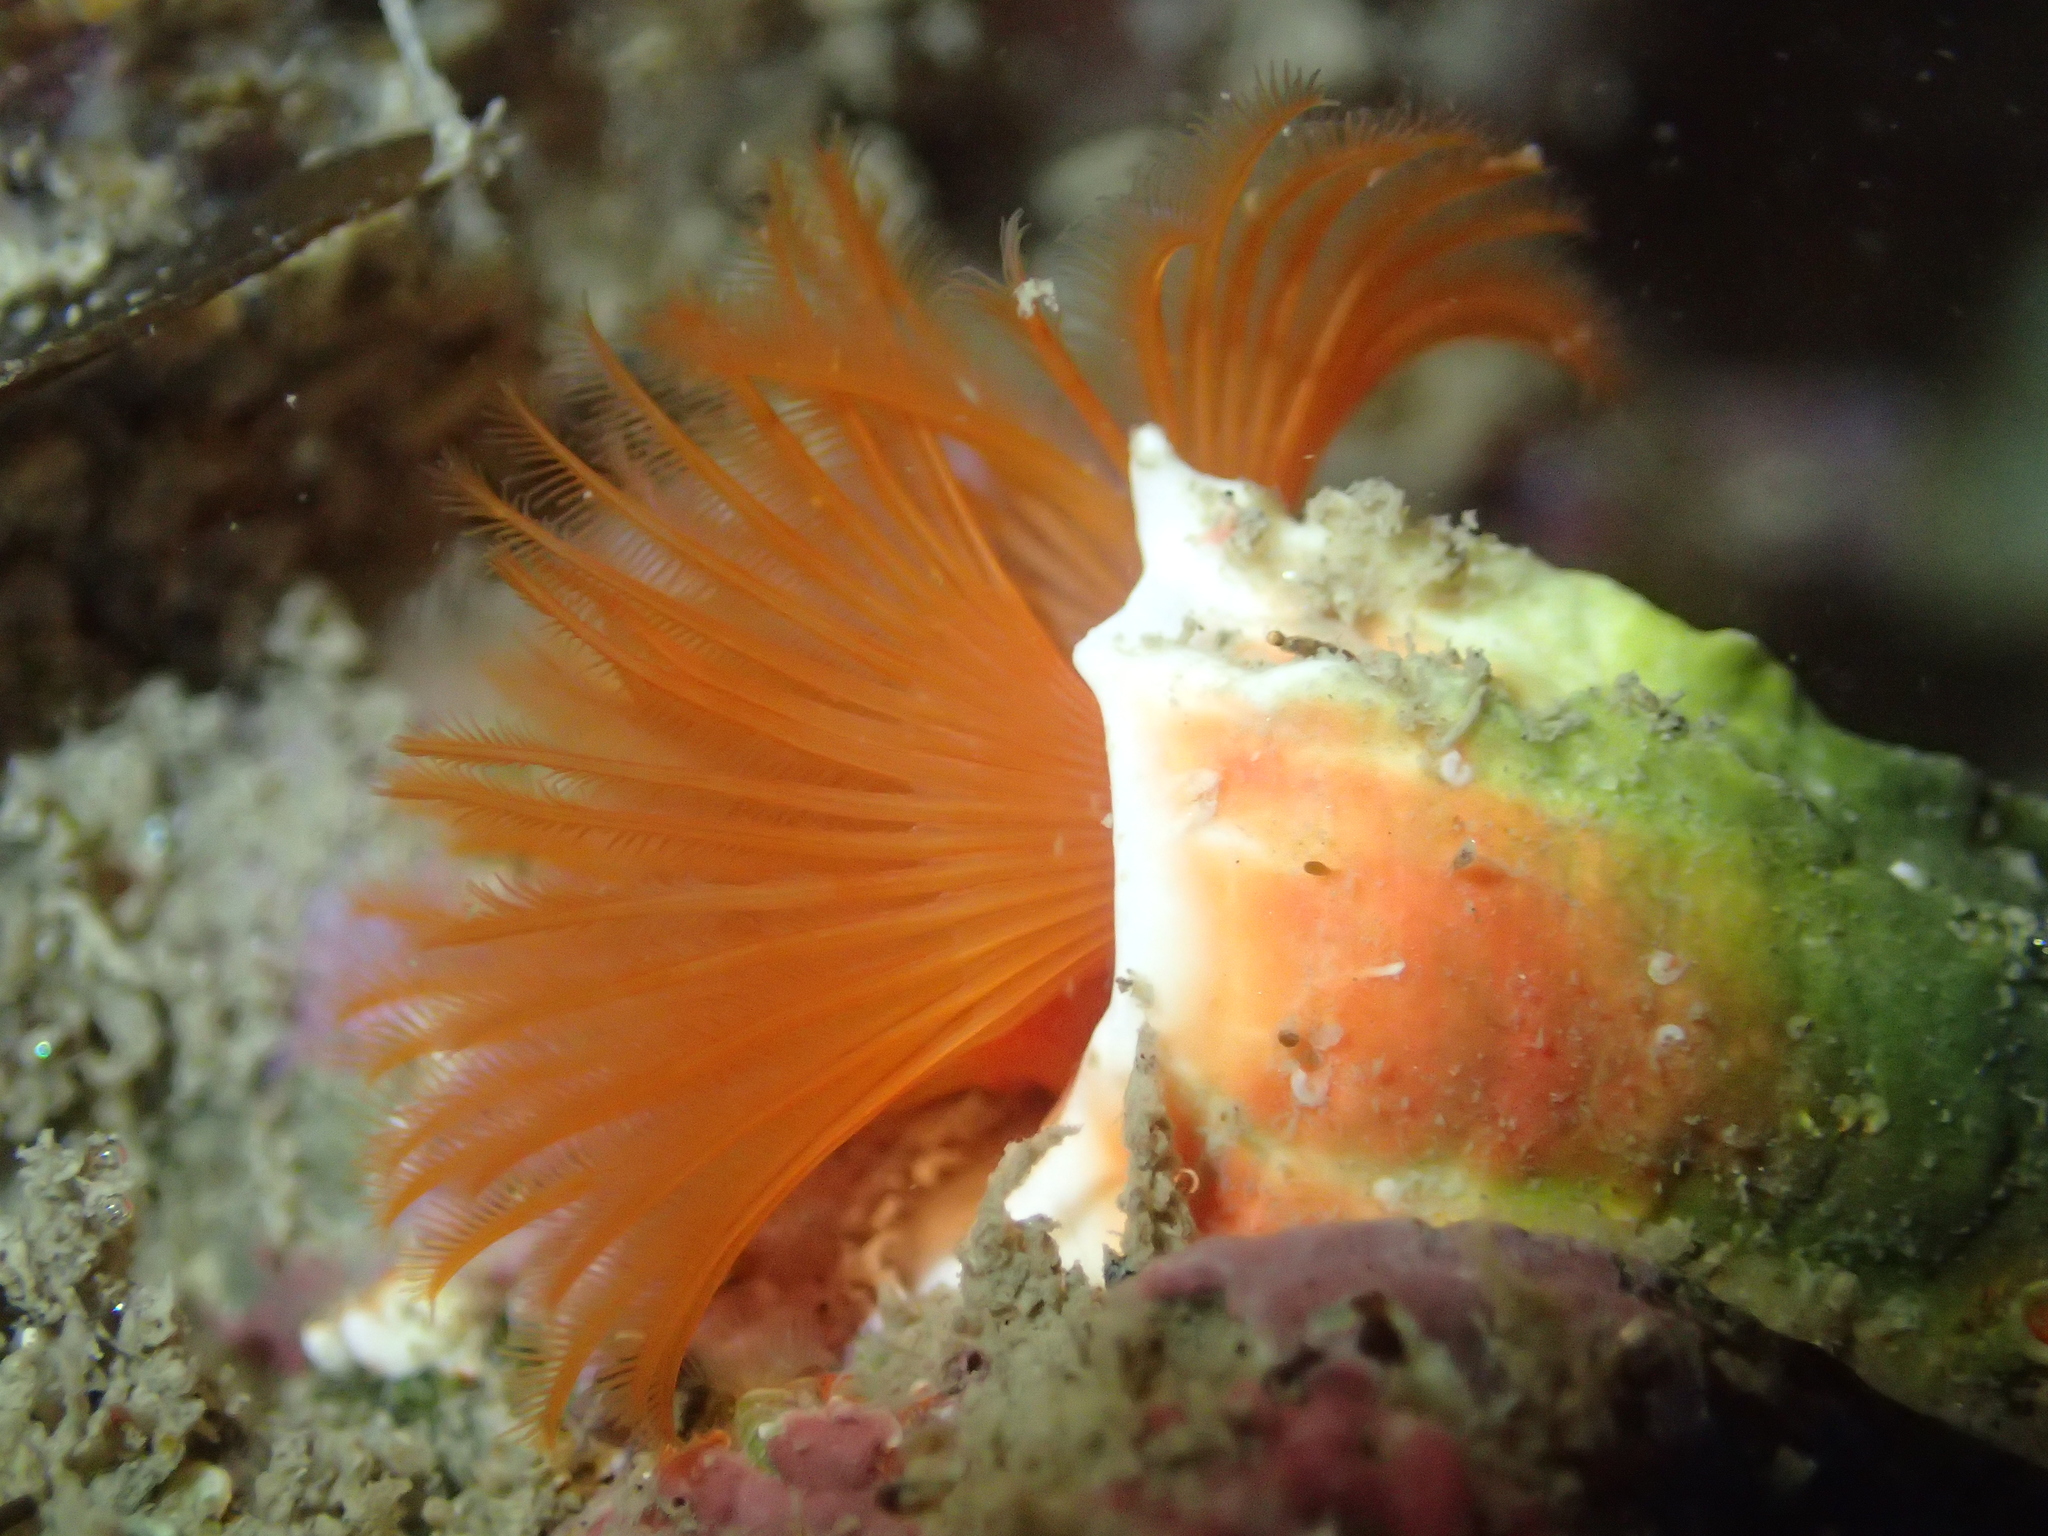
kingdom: Animalia
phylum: Annelida
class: Polychaeta
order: Sabellida
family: Serpulidae
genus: Galeolaria
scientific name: Galeolaria hystrix
